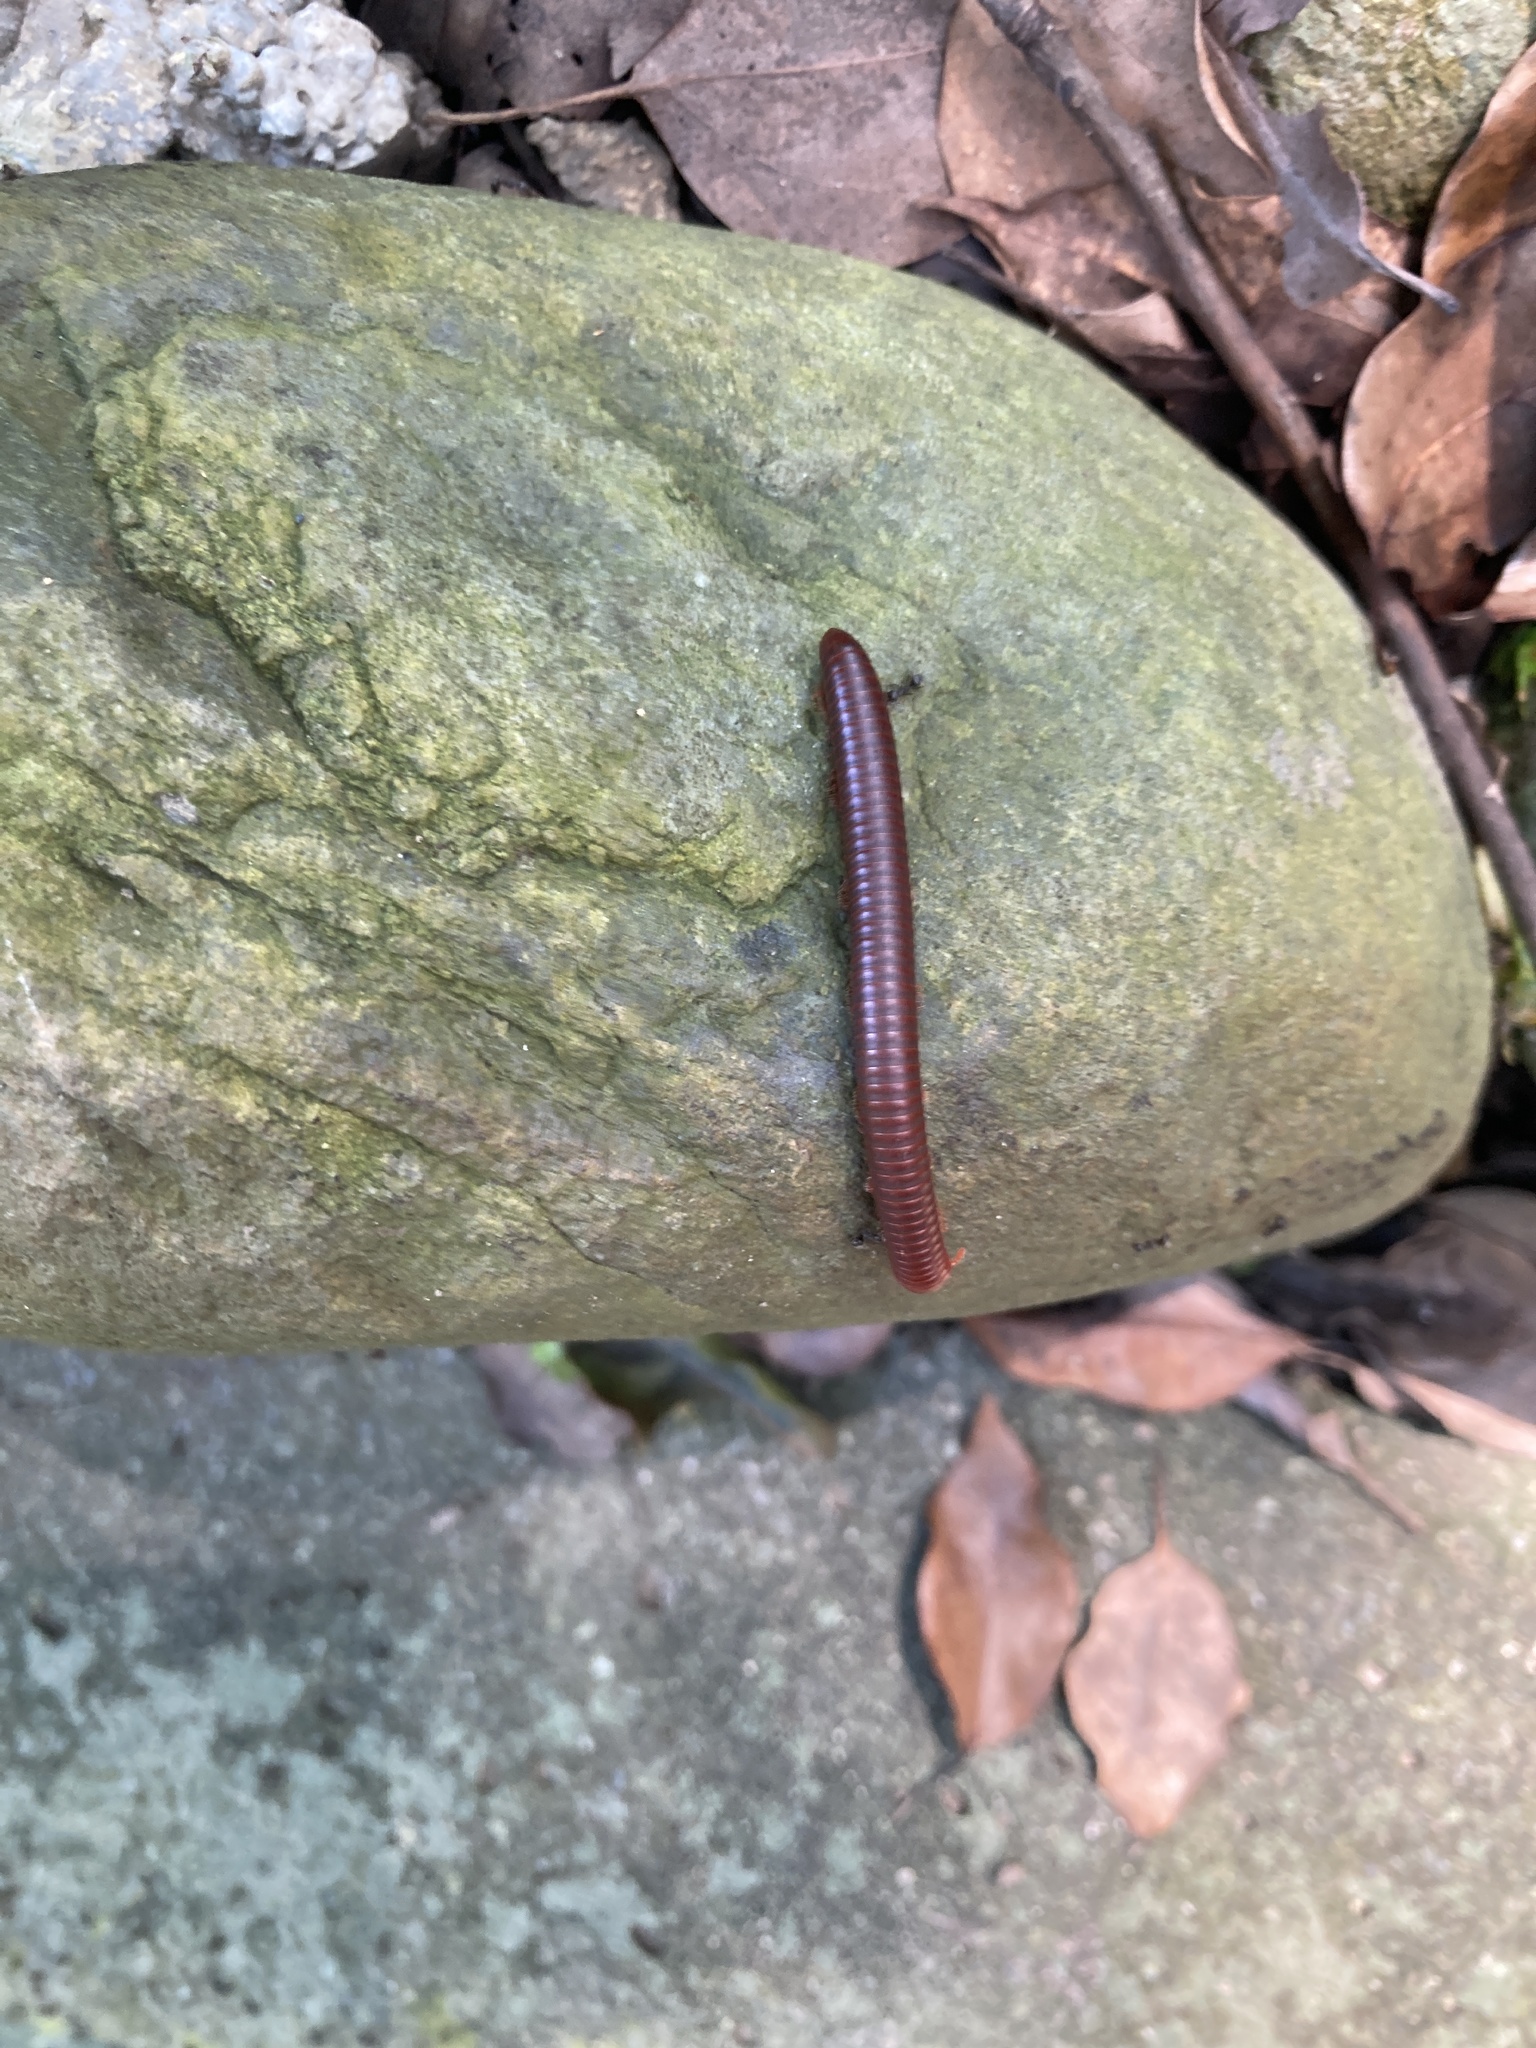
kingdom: Animalia
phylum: Arthropoda
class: Diplopoda
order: Spirobolida
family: Pachybolidae
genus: Trigoniulus
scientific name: Trigoniulus corallinus
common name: Millipede
